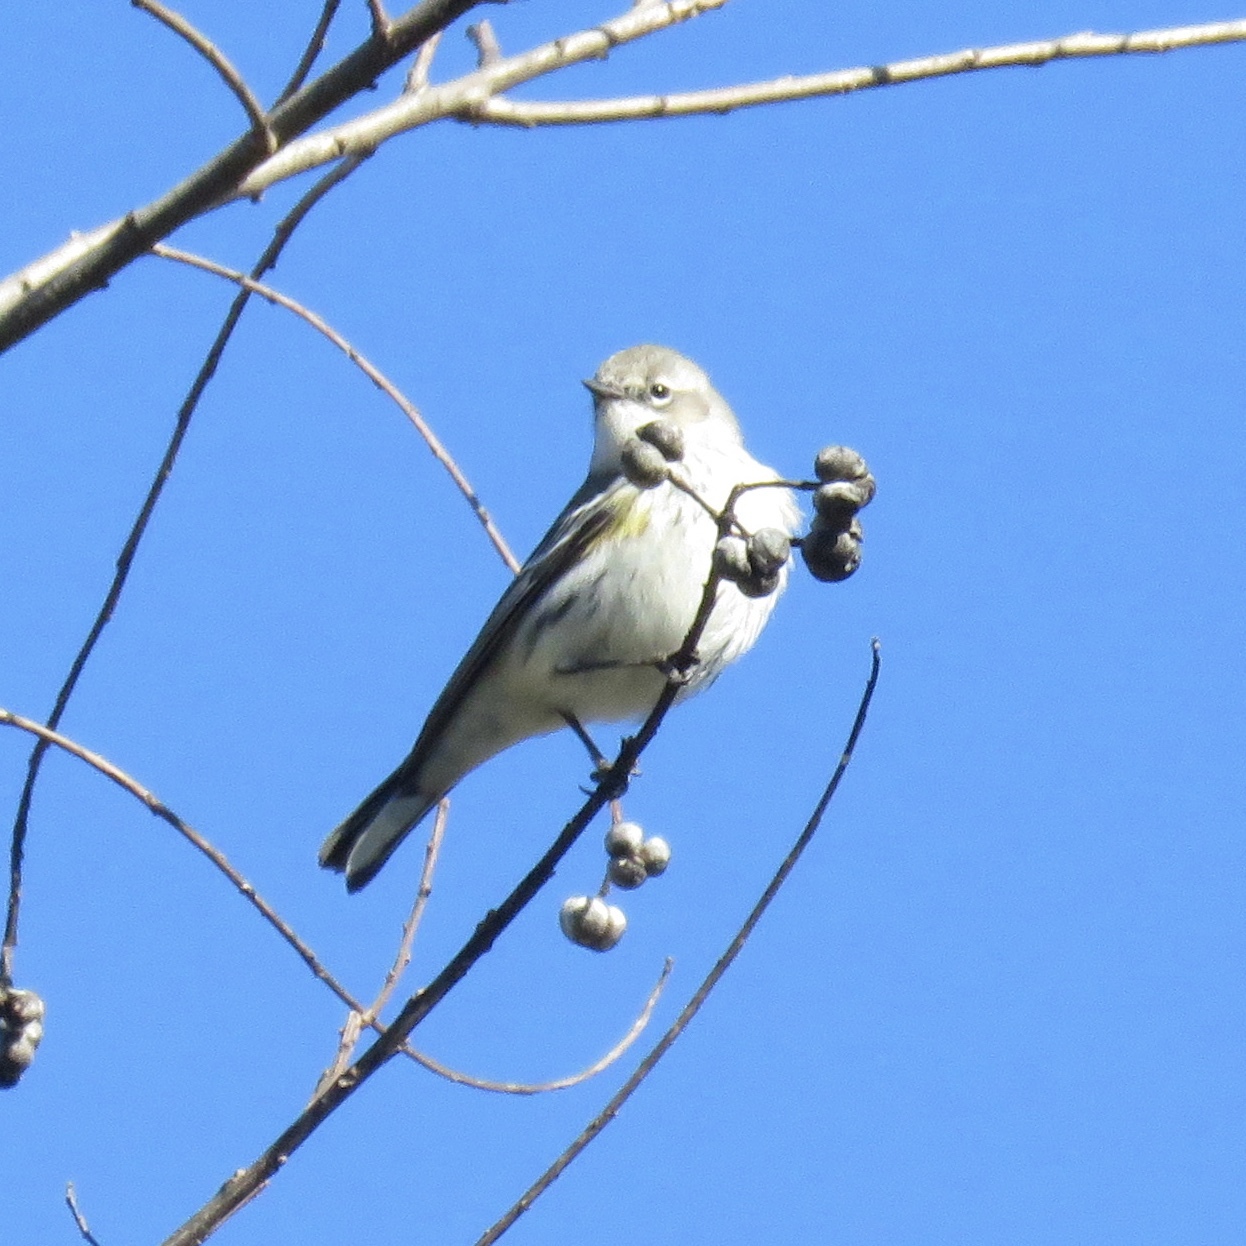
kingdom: Animalia
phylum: Chordata
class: Aves
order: Passeriformes
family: Parulidae
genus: Setophaga
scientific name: Setophaga coronata
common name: Myrtle warbler
